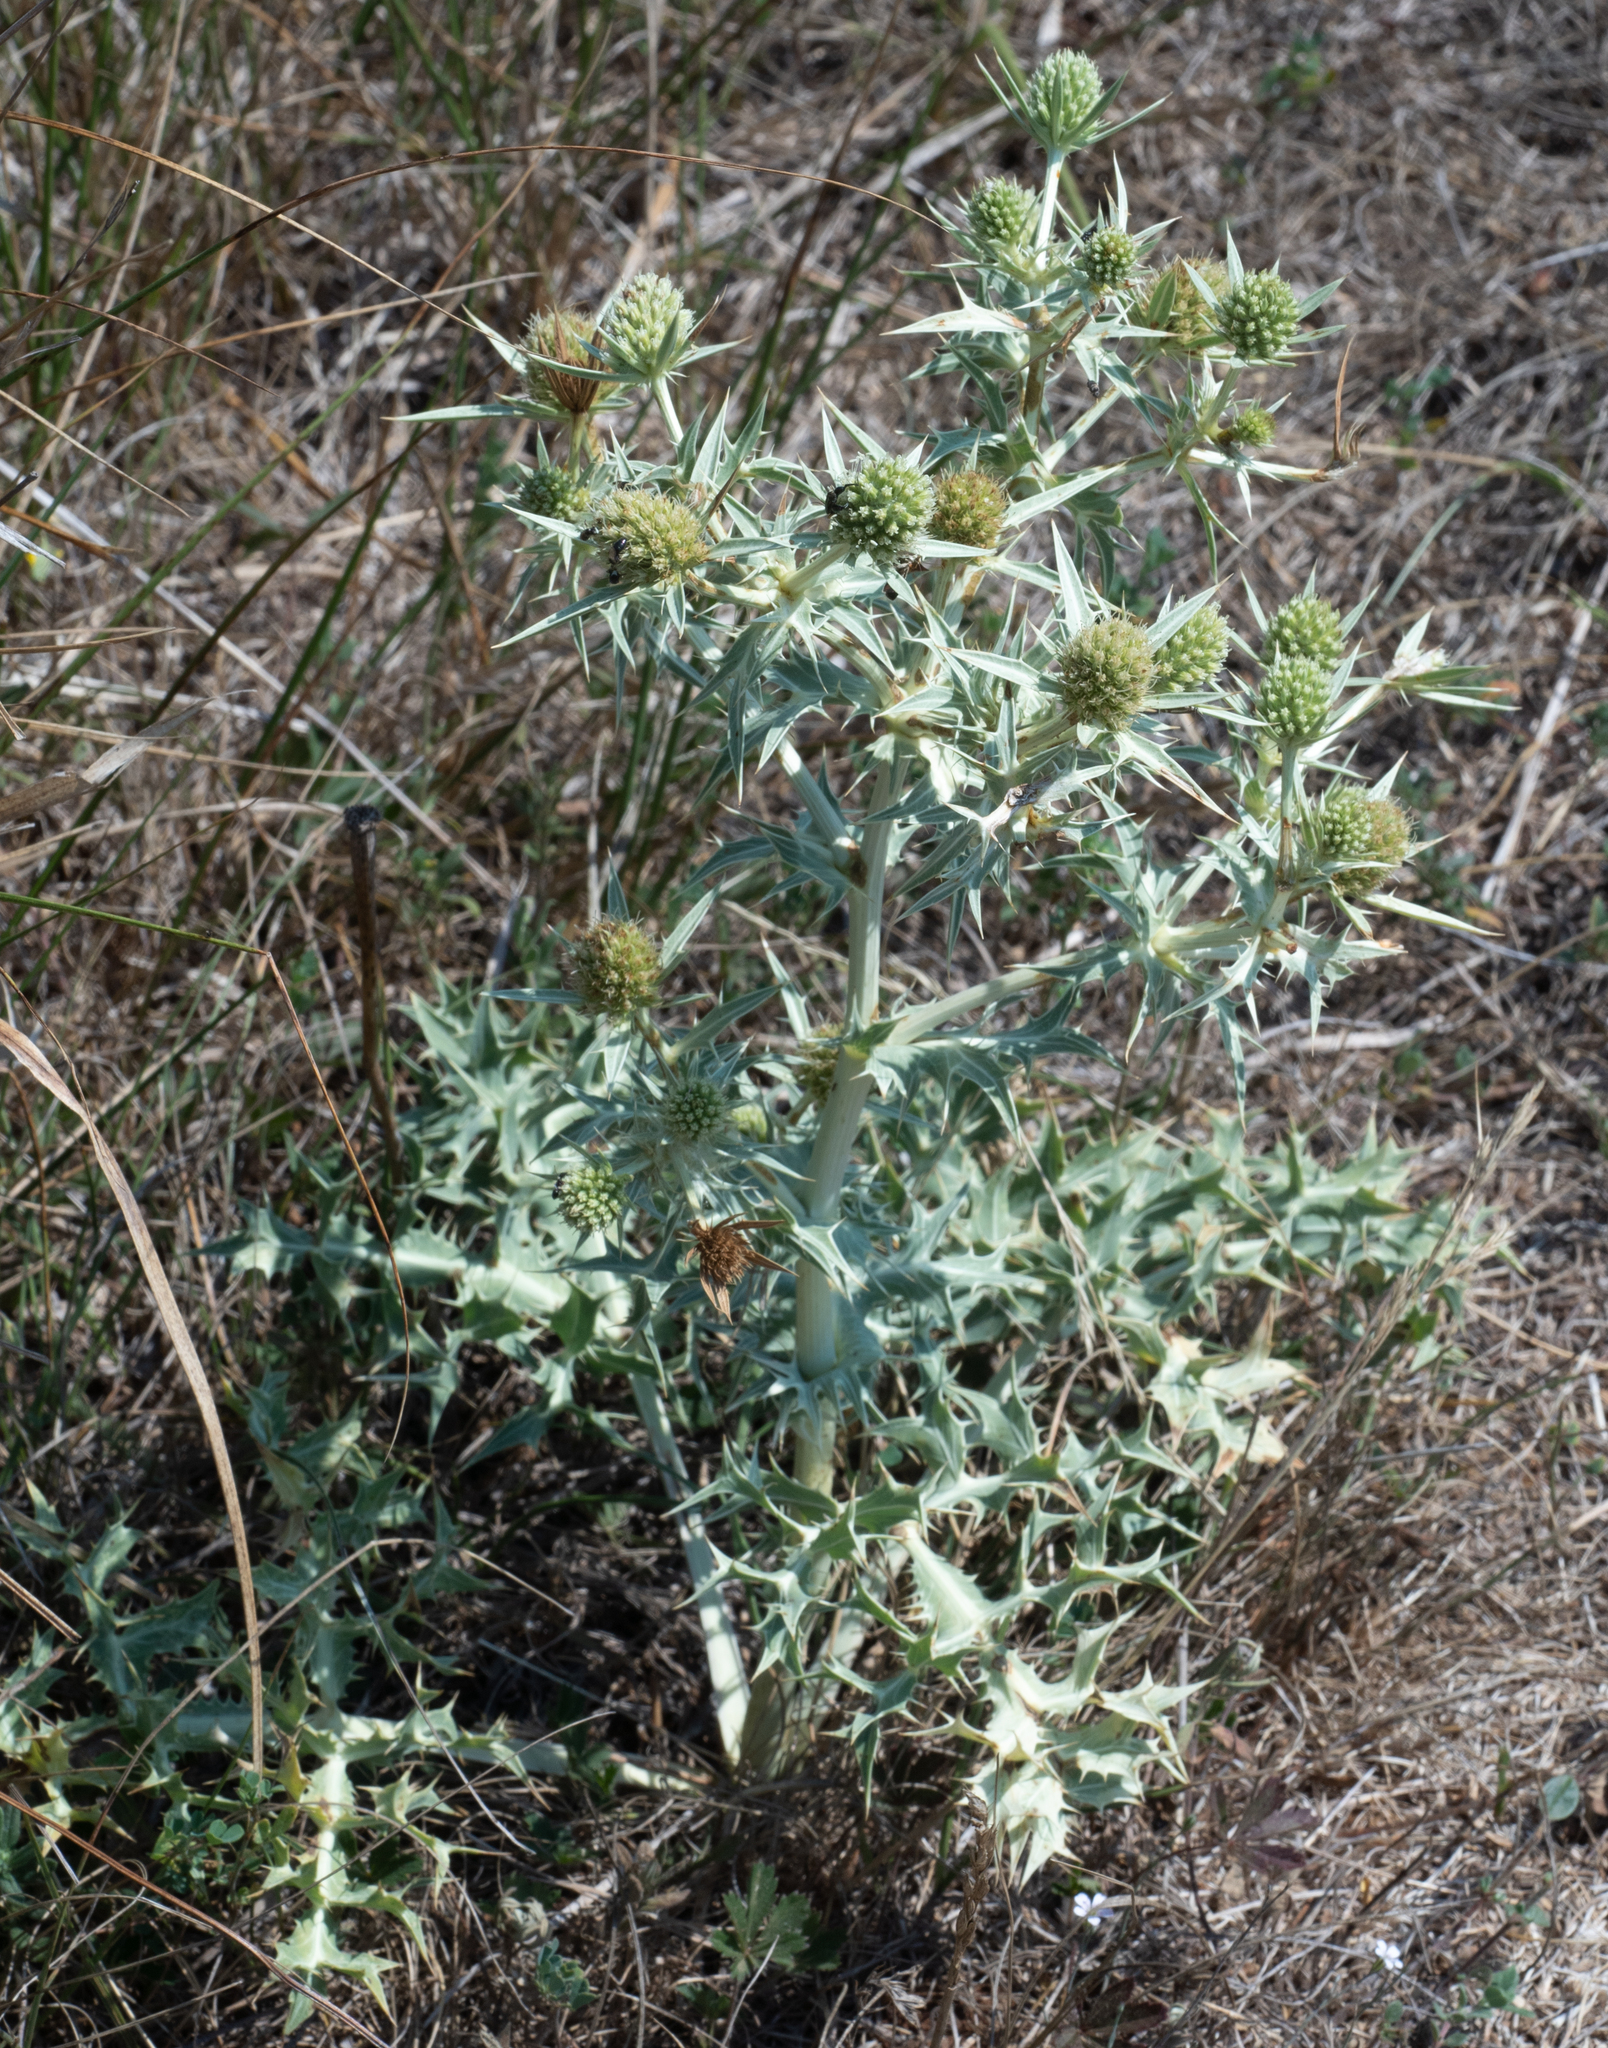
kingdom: Plantae
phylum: Tracheophyta
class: Magnoliopsida
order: Apiales
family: Apiaceae
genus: Eryngium
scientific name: Eryngium campestre
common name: Field eryngo
